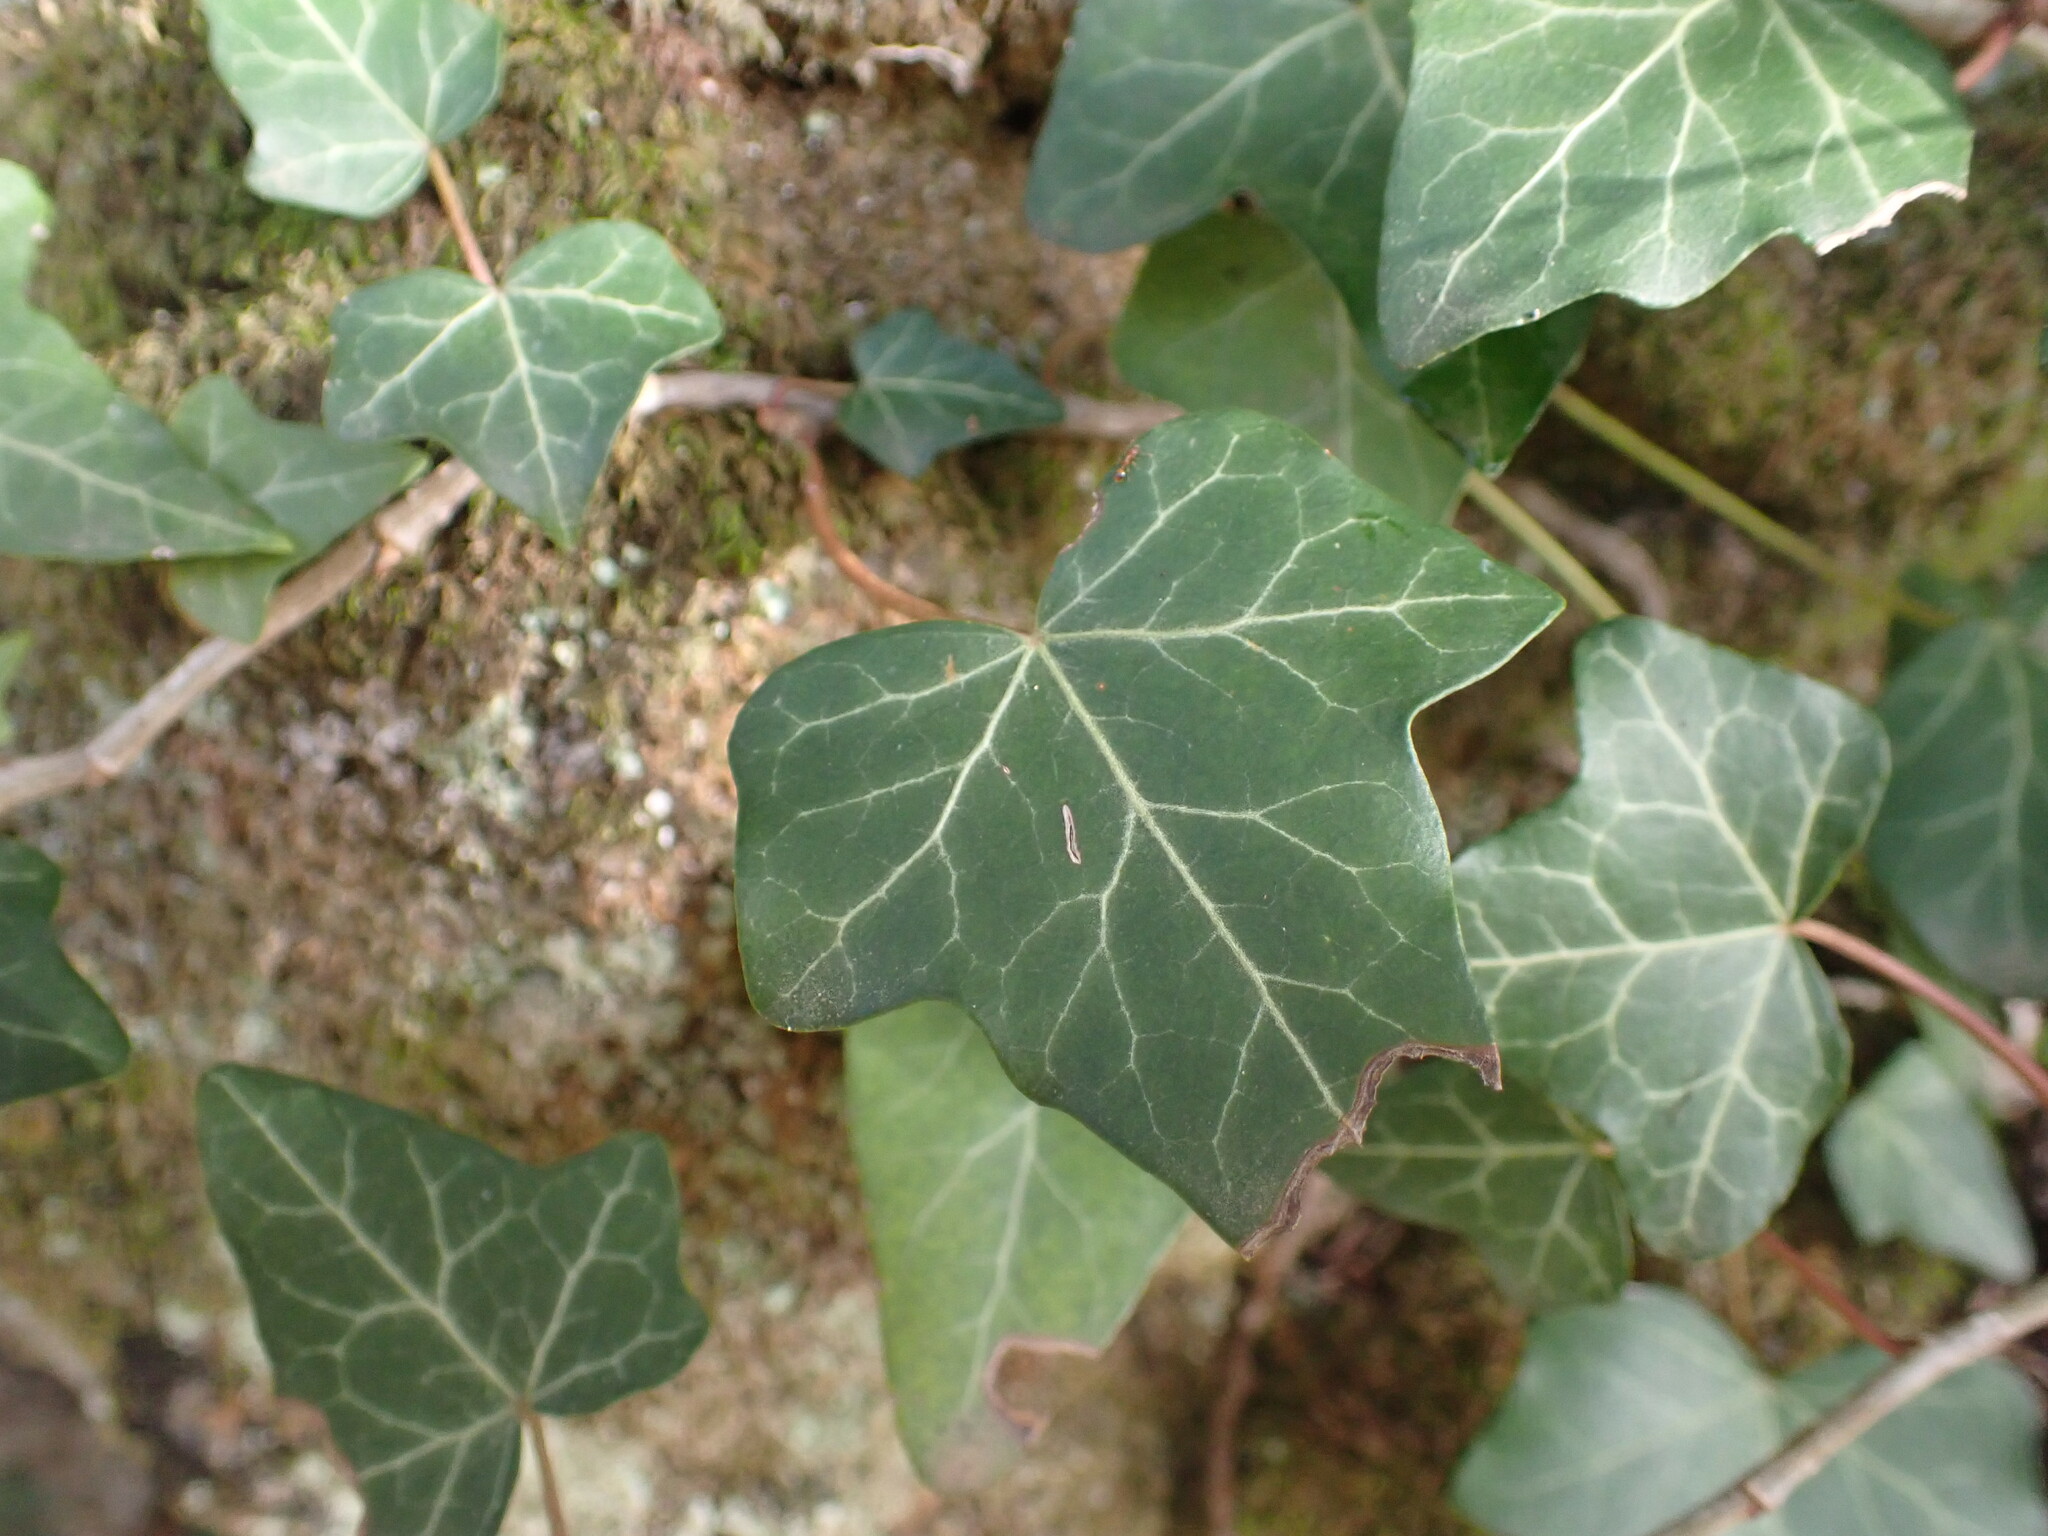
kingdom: Plantae
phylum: Tracheophyta
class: Magnoliopsida
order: Apiales
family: Araliaceae
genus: Hedera
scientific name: Hedera helix
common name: Ivy
